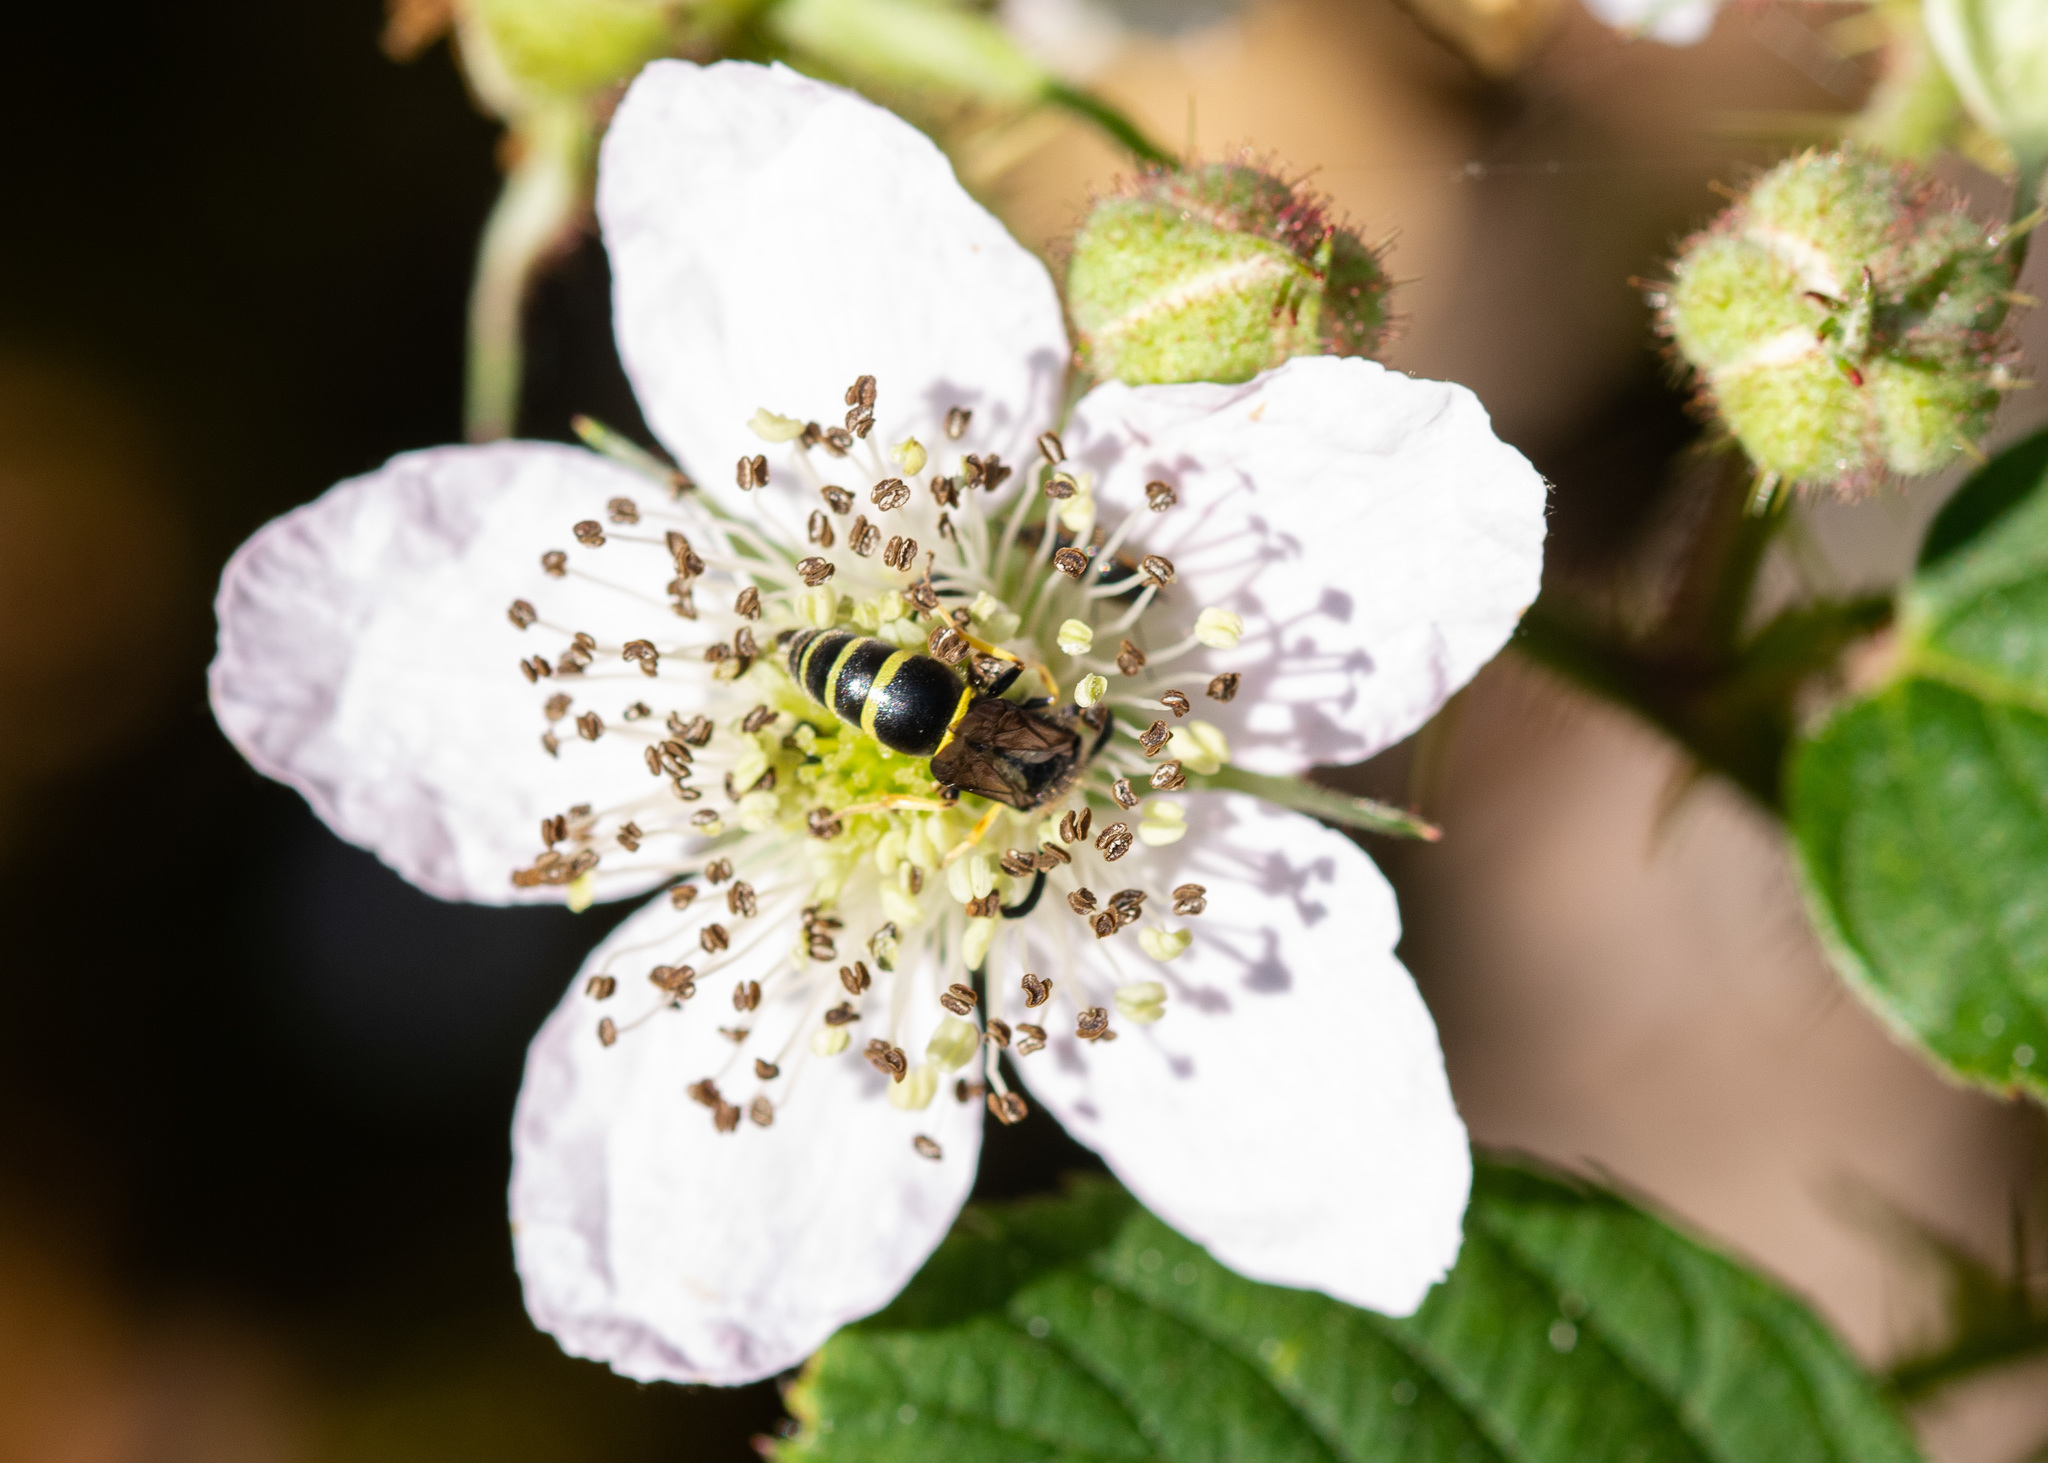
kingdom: Animalia
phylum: Arthropoda
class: Insecta
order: Hymenoptera
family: Vespidae
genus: Ancistrocerus
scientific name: Ancistrocerus
